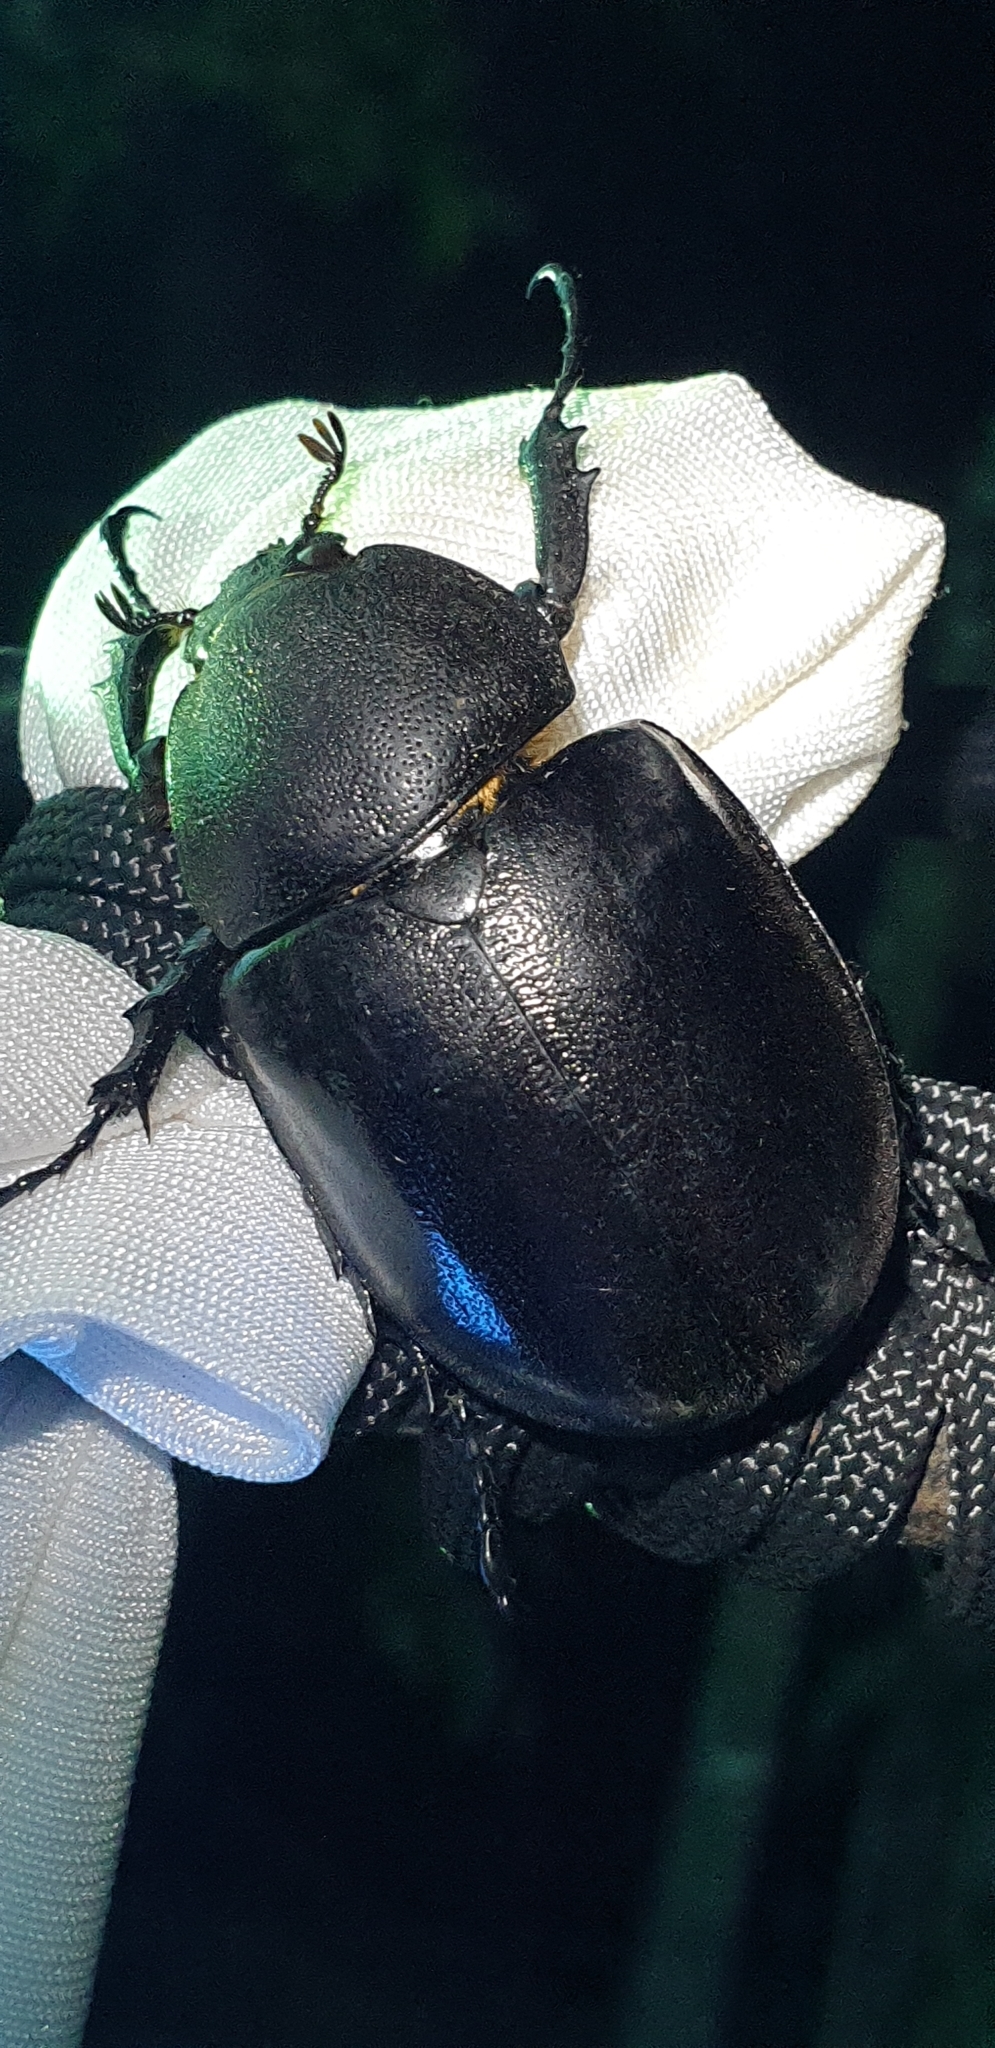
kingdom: Animalia
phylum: Arthropoda
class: Insecta
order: Coleoptera
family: Scarabaeidae
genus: Xylotrupes
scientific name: Xylotrupes australicus
